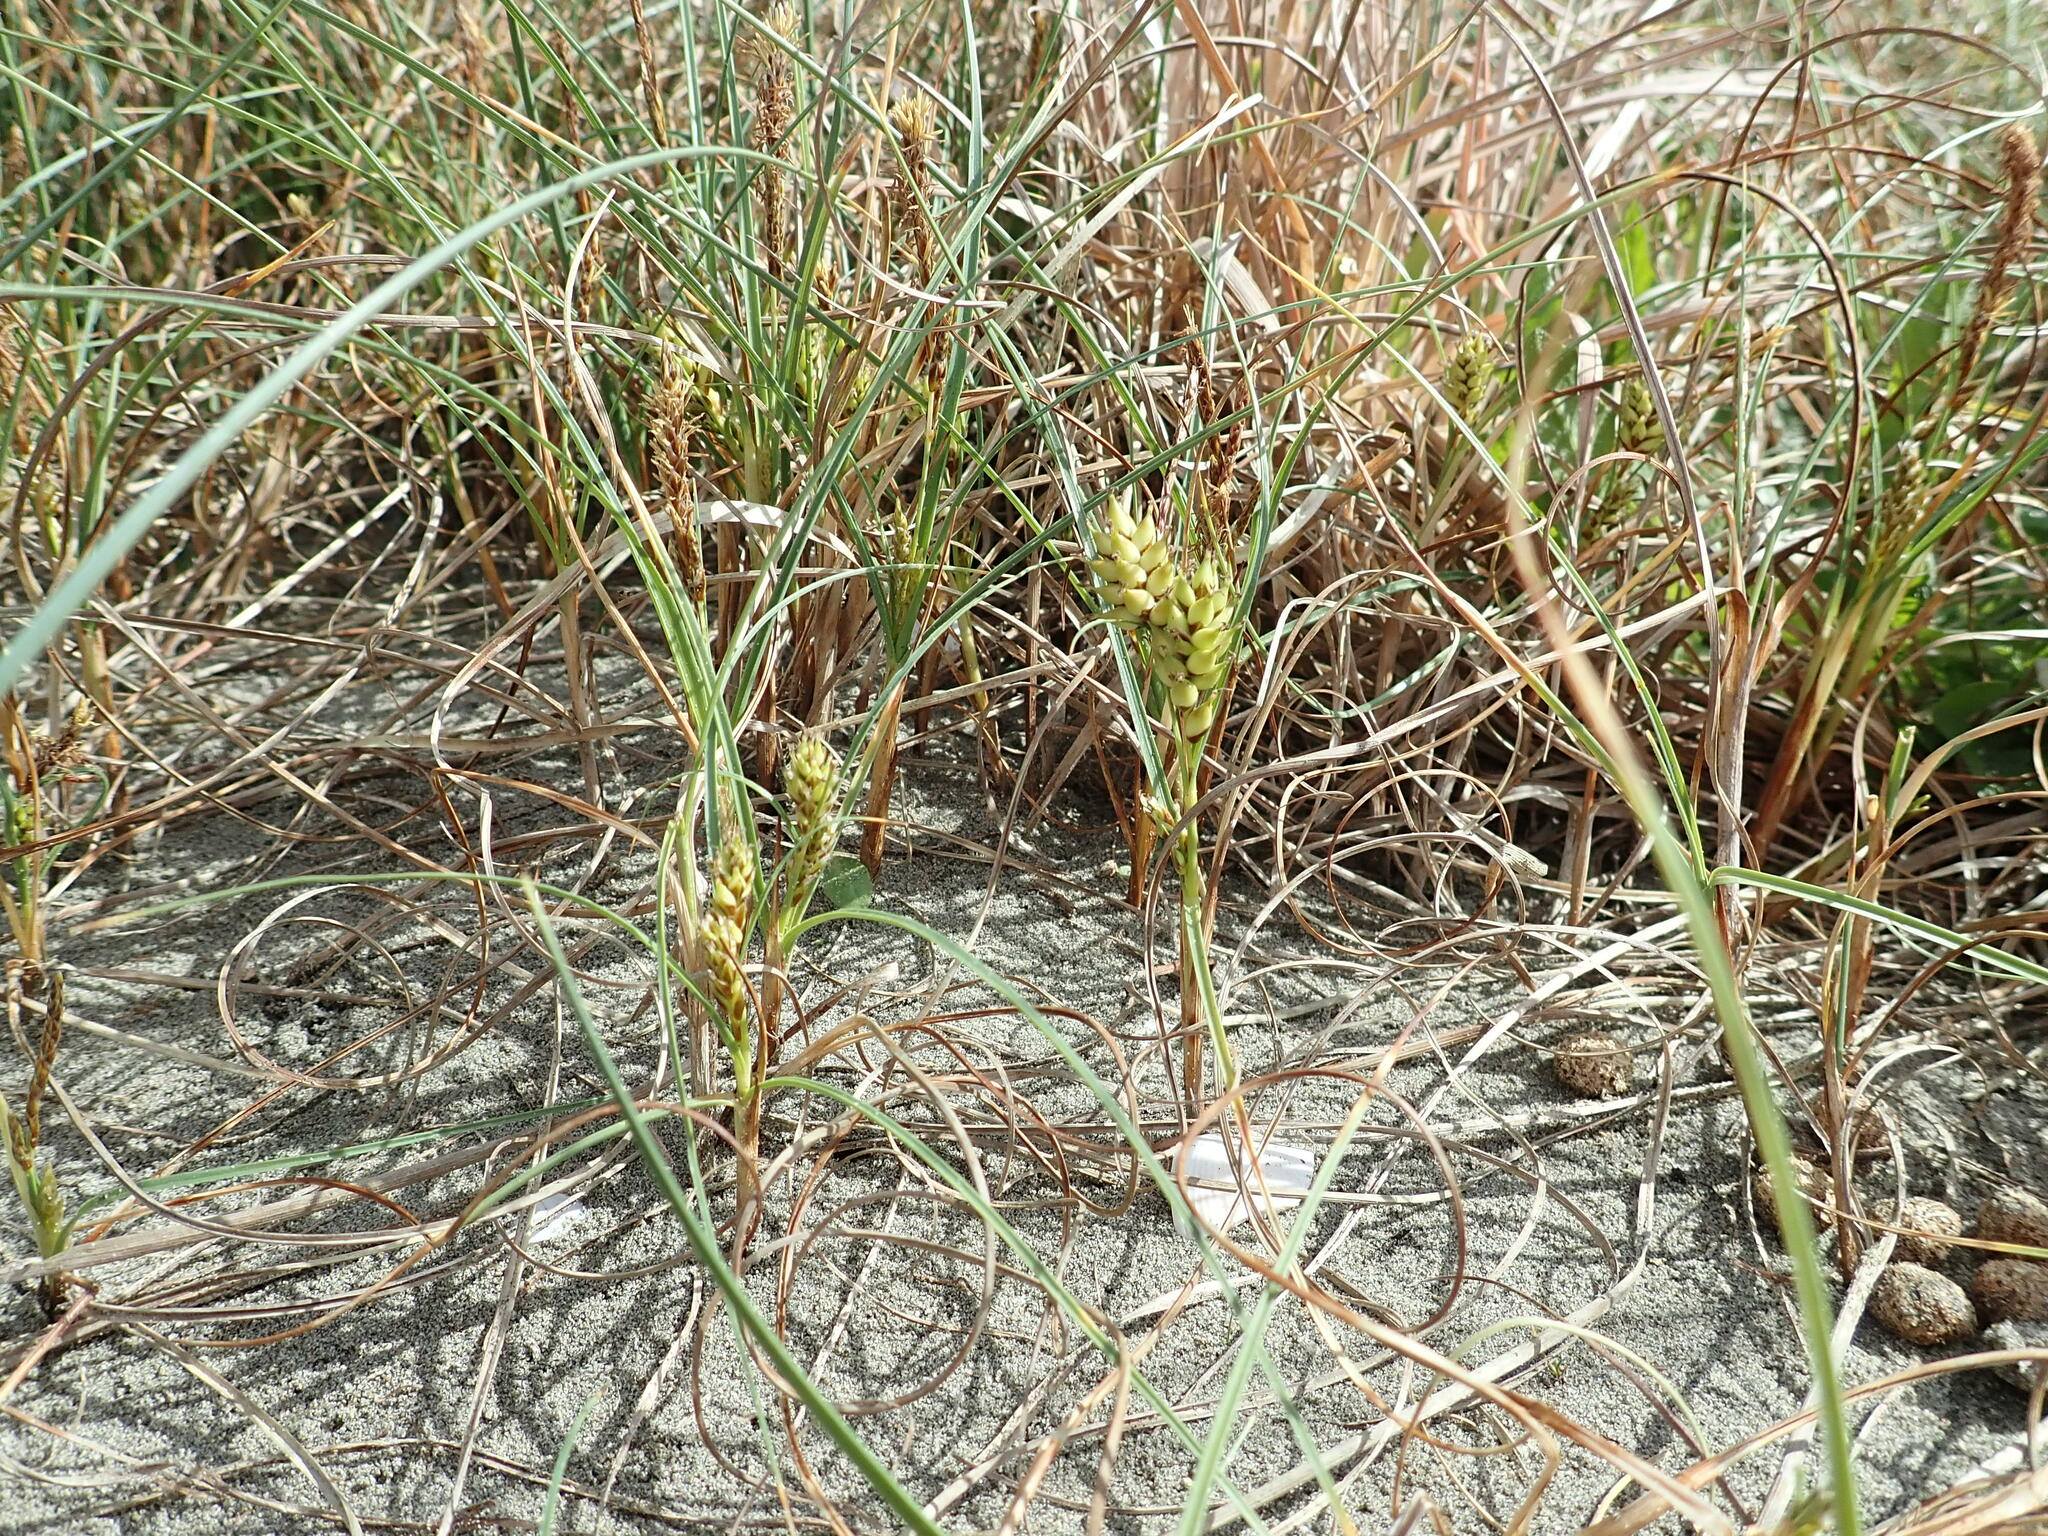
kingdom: Plantae
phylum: Tracheophyta
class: Liliopsida
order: Poales
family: Cyperaceae
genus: Carex
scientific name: Carex pumila
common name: Dwarf sedge
